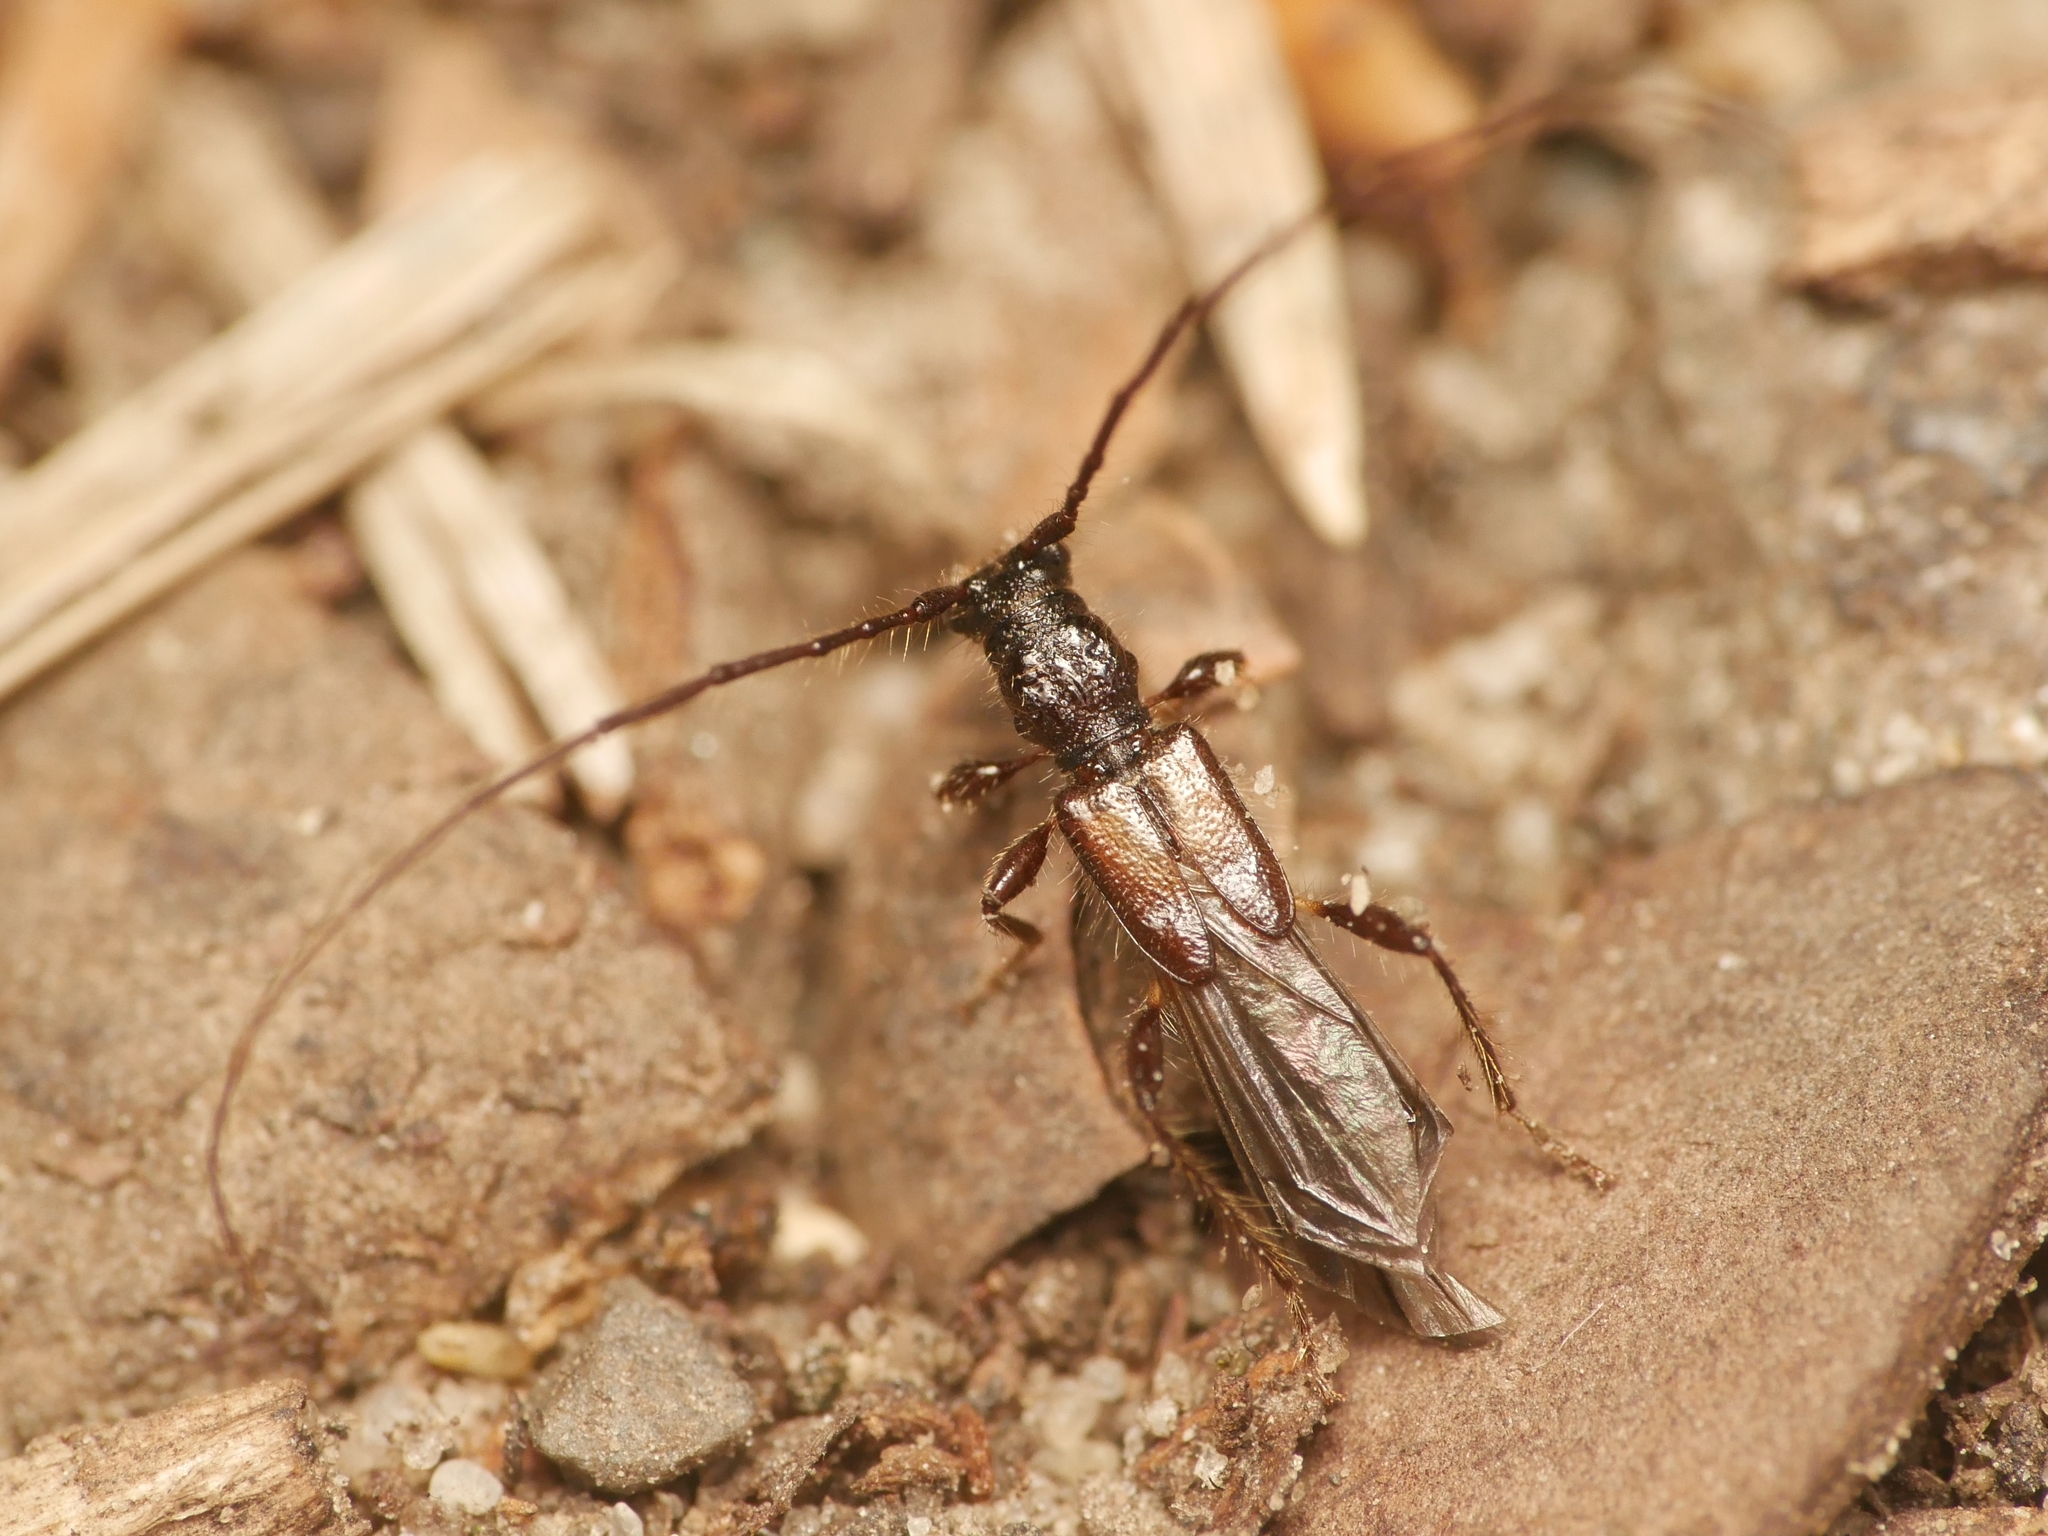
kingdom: Animalia
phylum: Arthropoda
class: Insecta
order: Coleoptera
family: Cerambycidae
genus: Molorchus
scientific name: Molorchus umbellatarum
